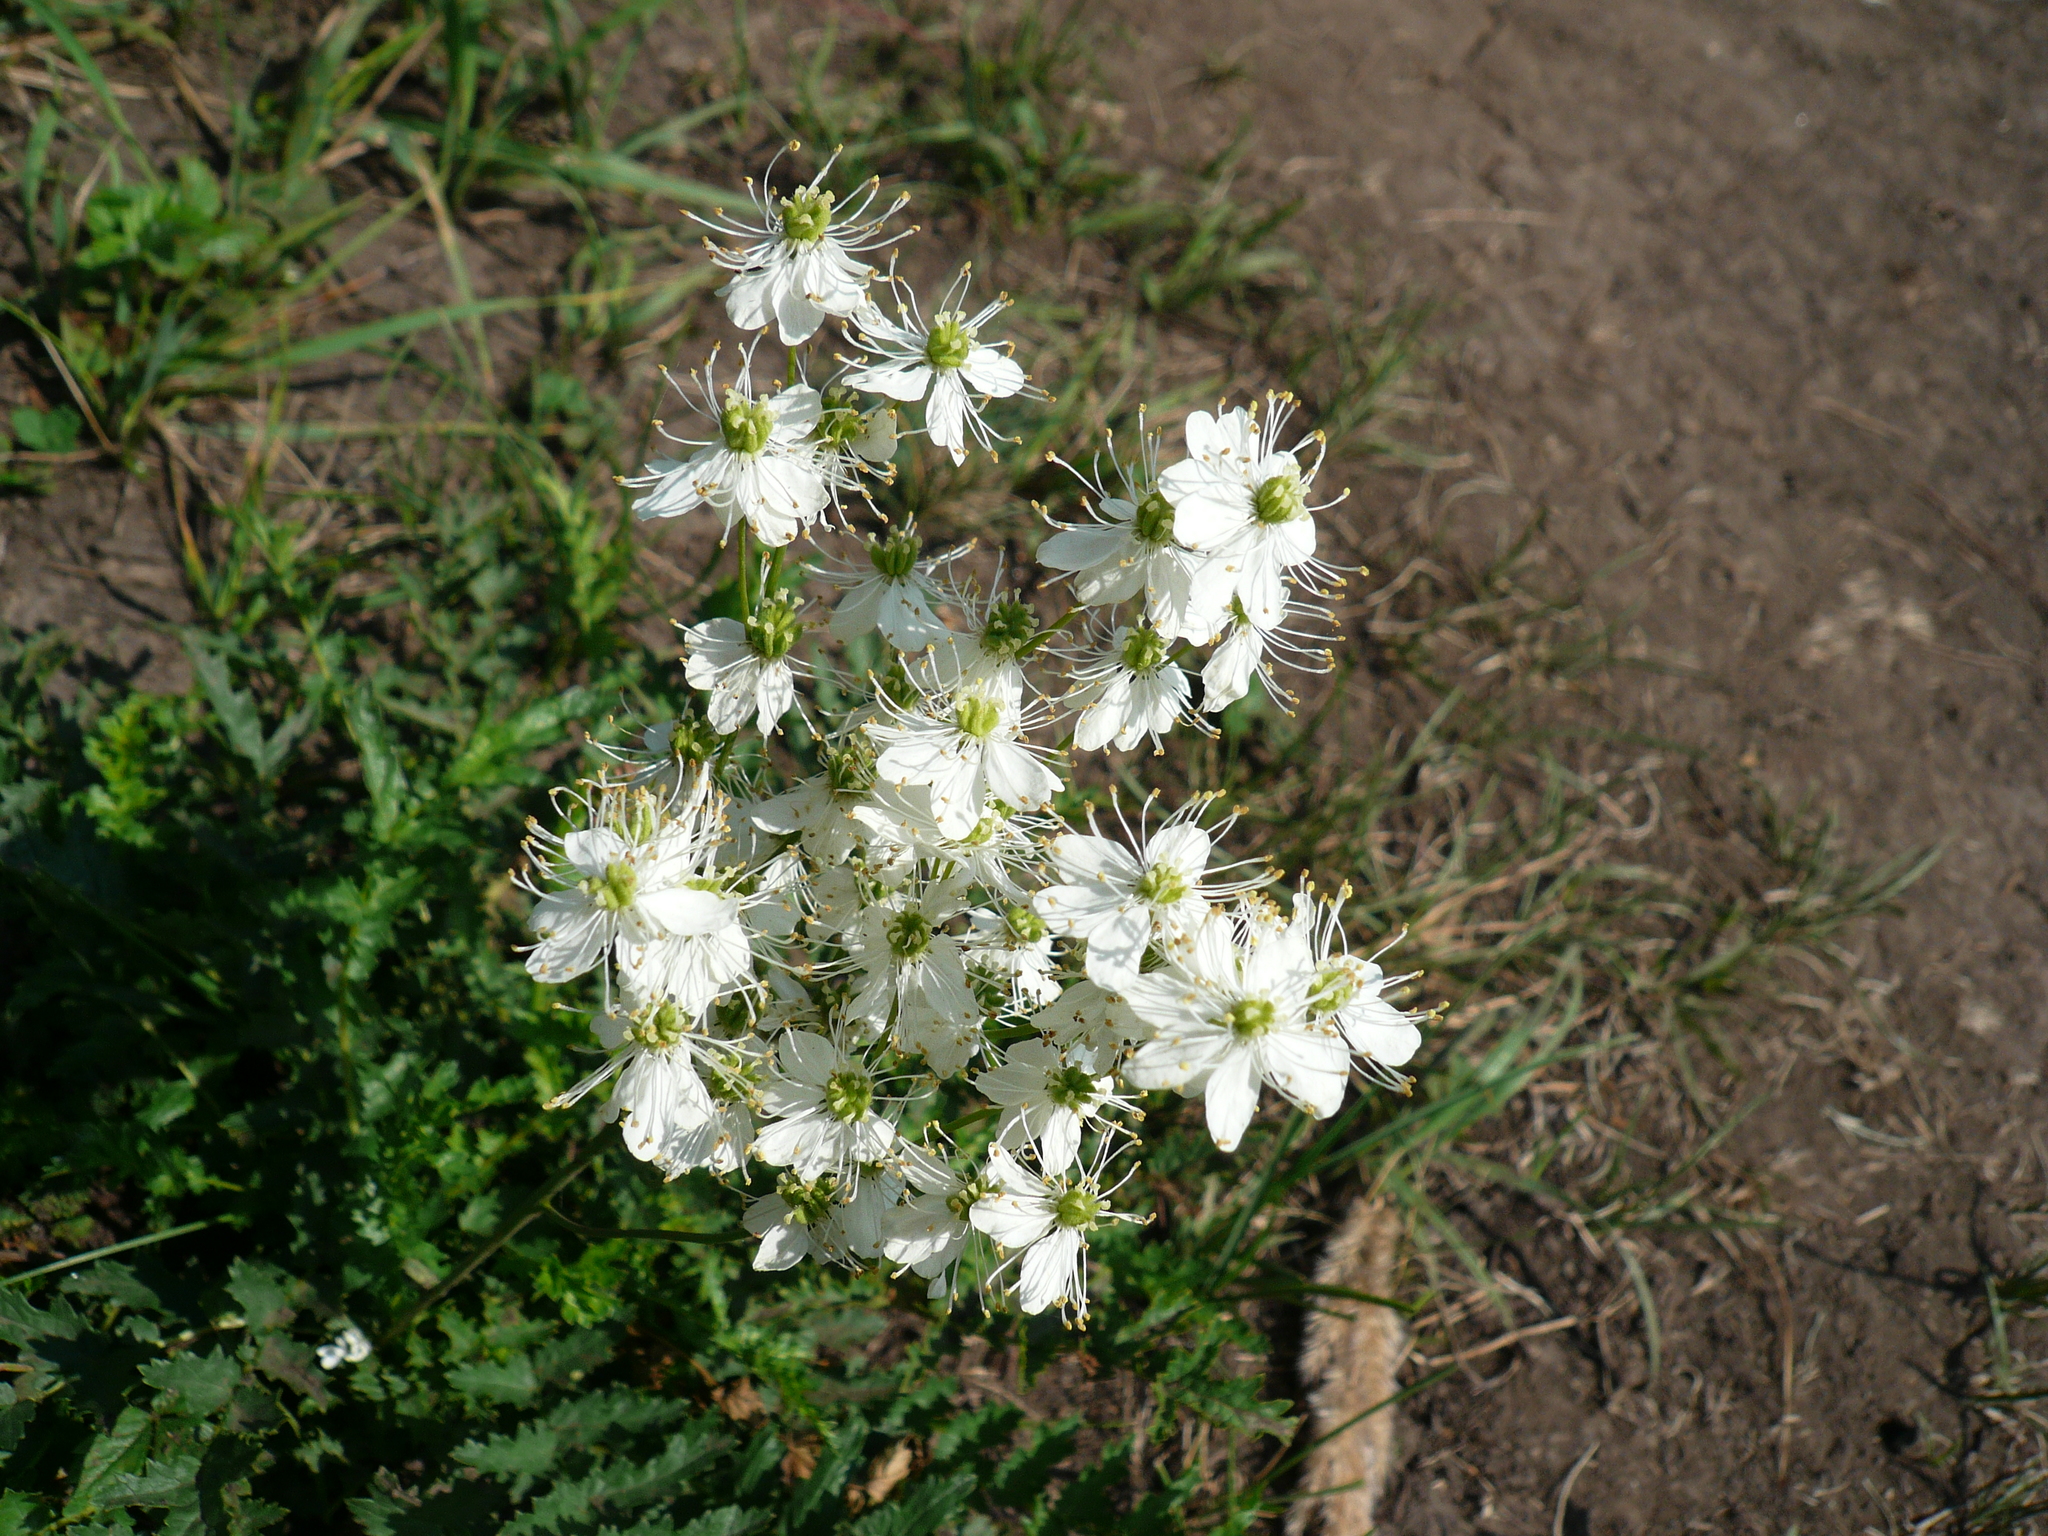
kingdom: Plantae
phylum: Tracheophyta
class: Magnoliopsida
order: Rosales
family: Rosaceae
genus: Filipendula
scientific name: Filipendula vulgaris
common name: Dropwort
